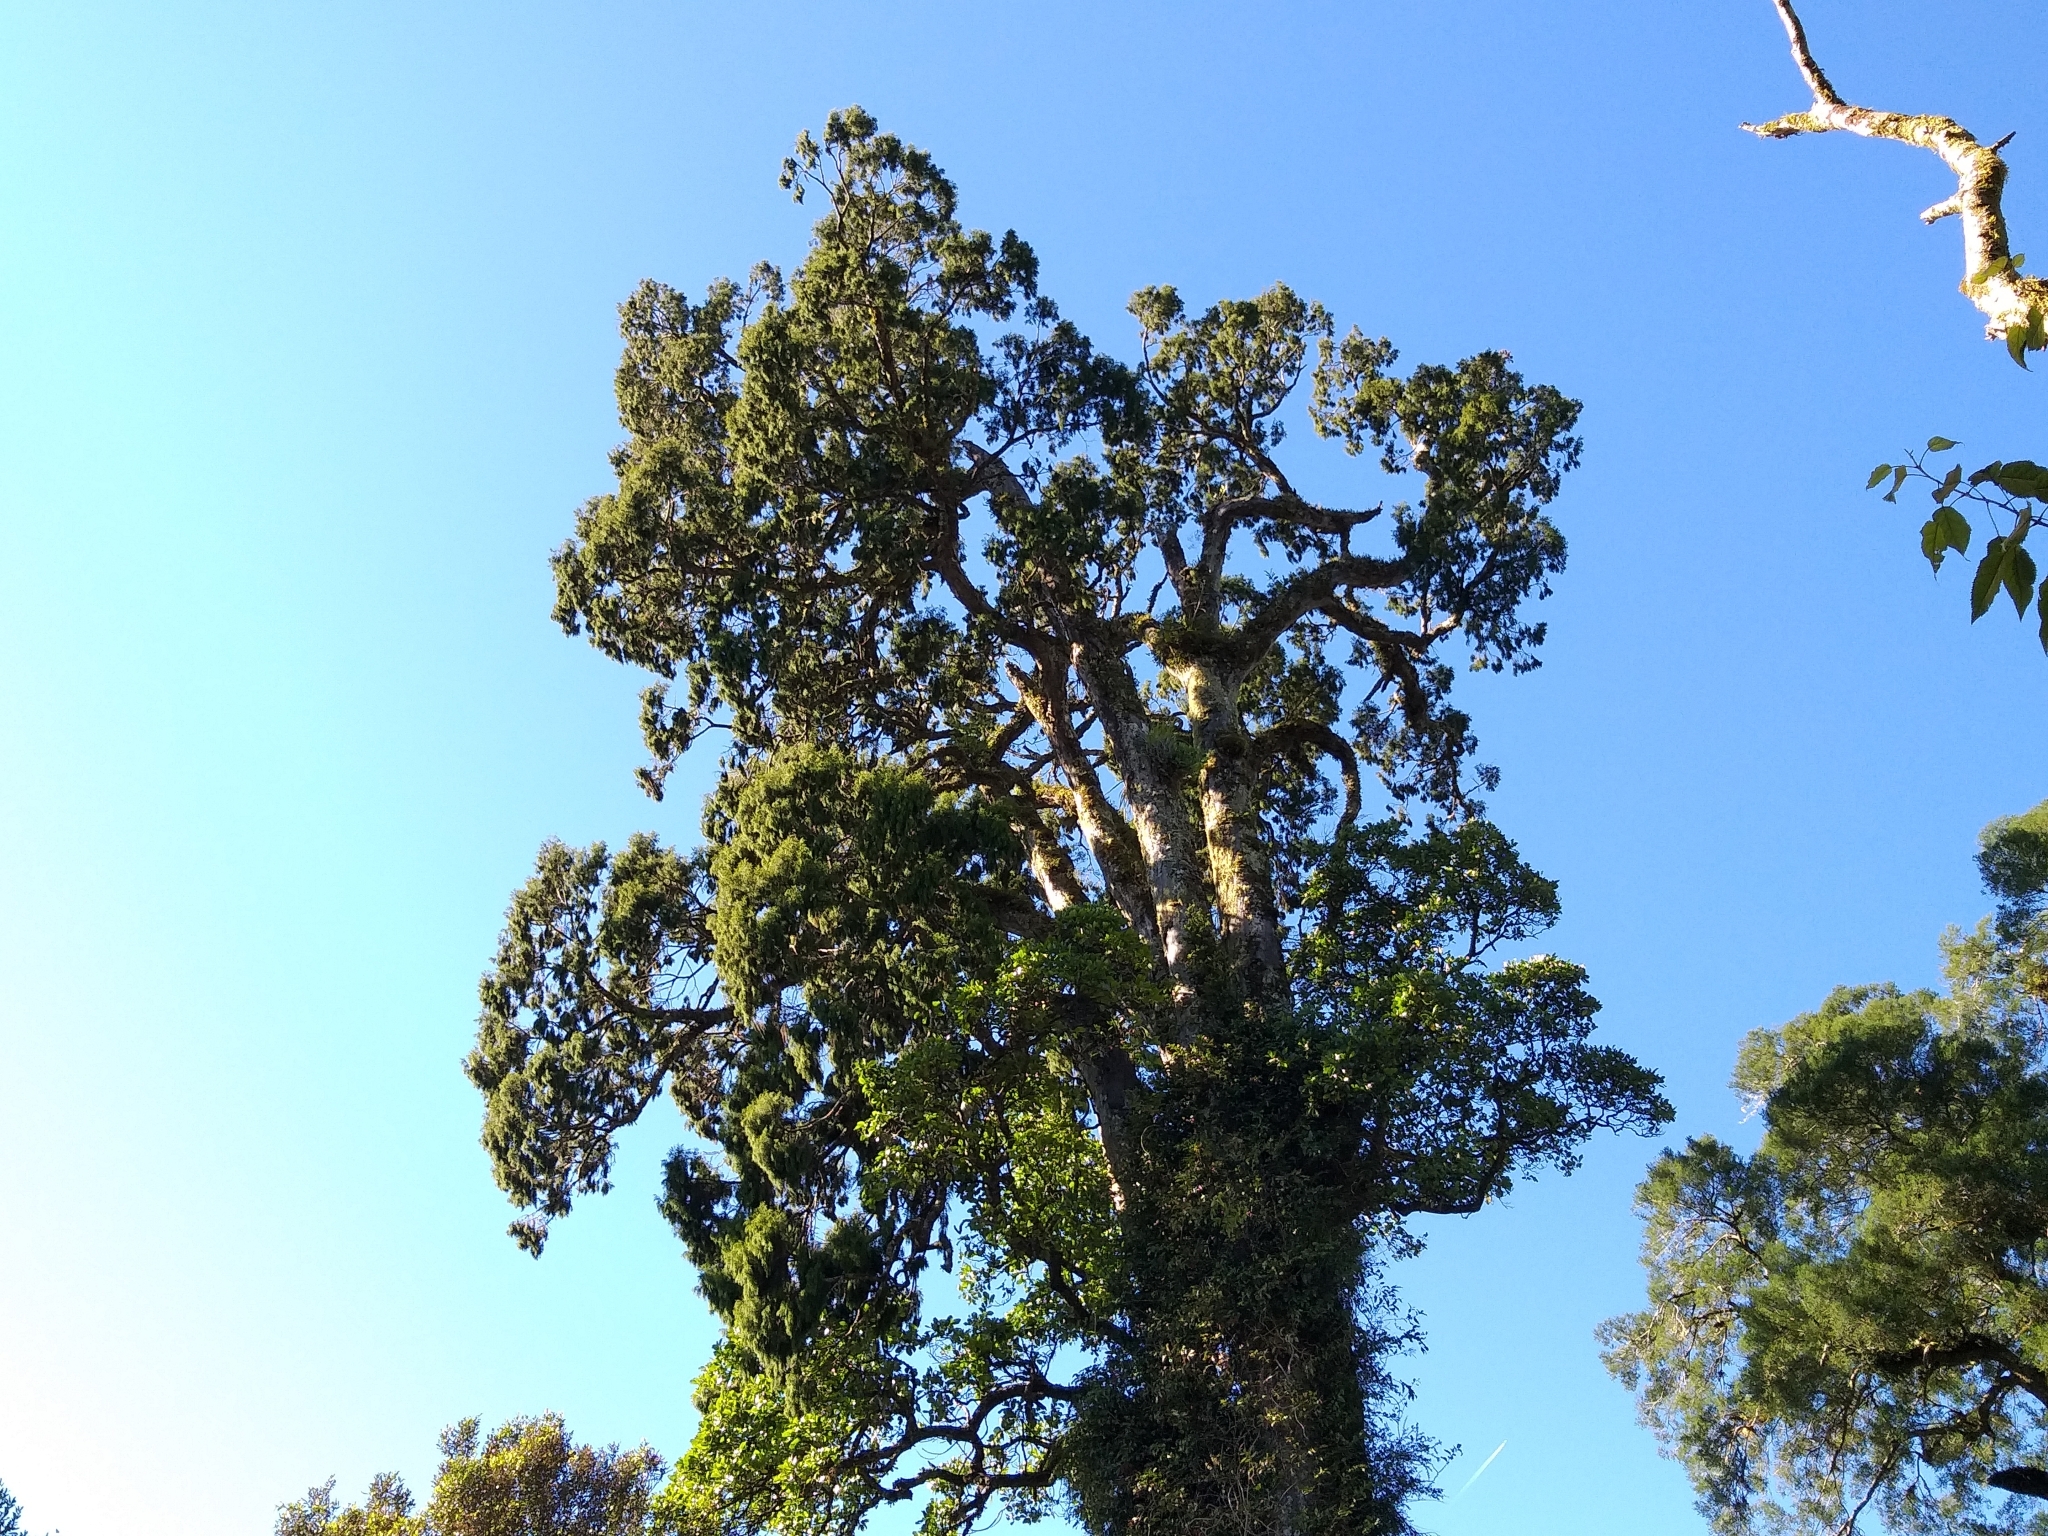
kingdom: Plantae
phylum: Tracheophyta
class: Pinopsida
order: Pinales
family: Podocarpaceae
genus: Dacrydium
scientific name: Dacrydium cupressinum
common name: Red pine
